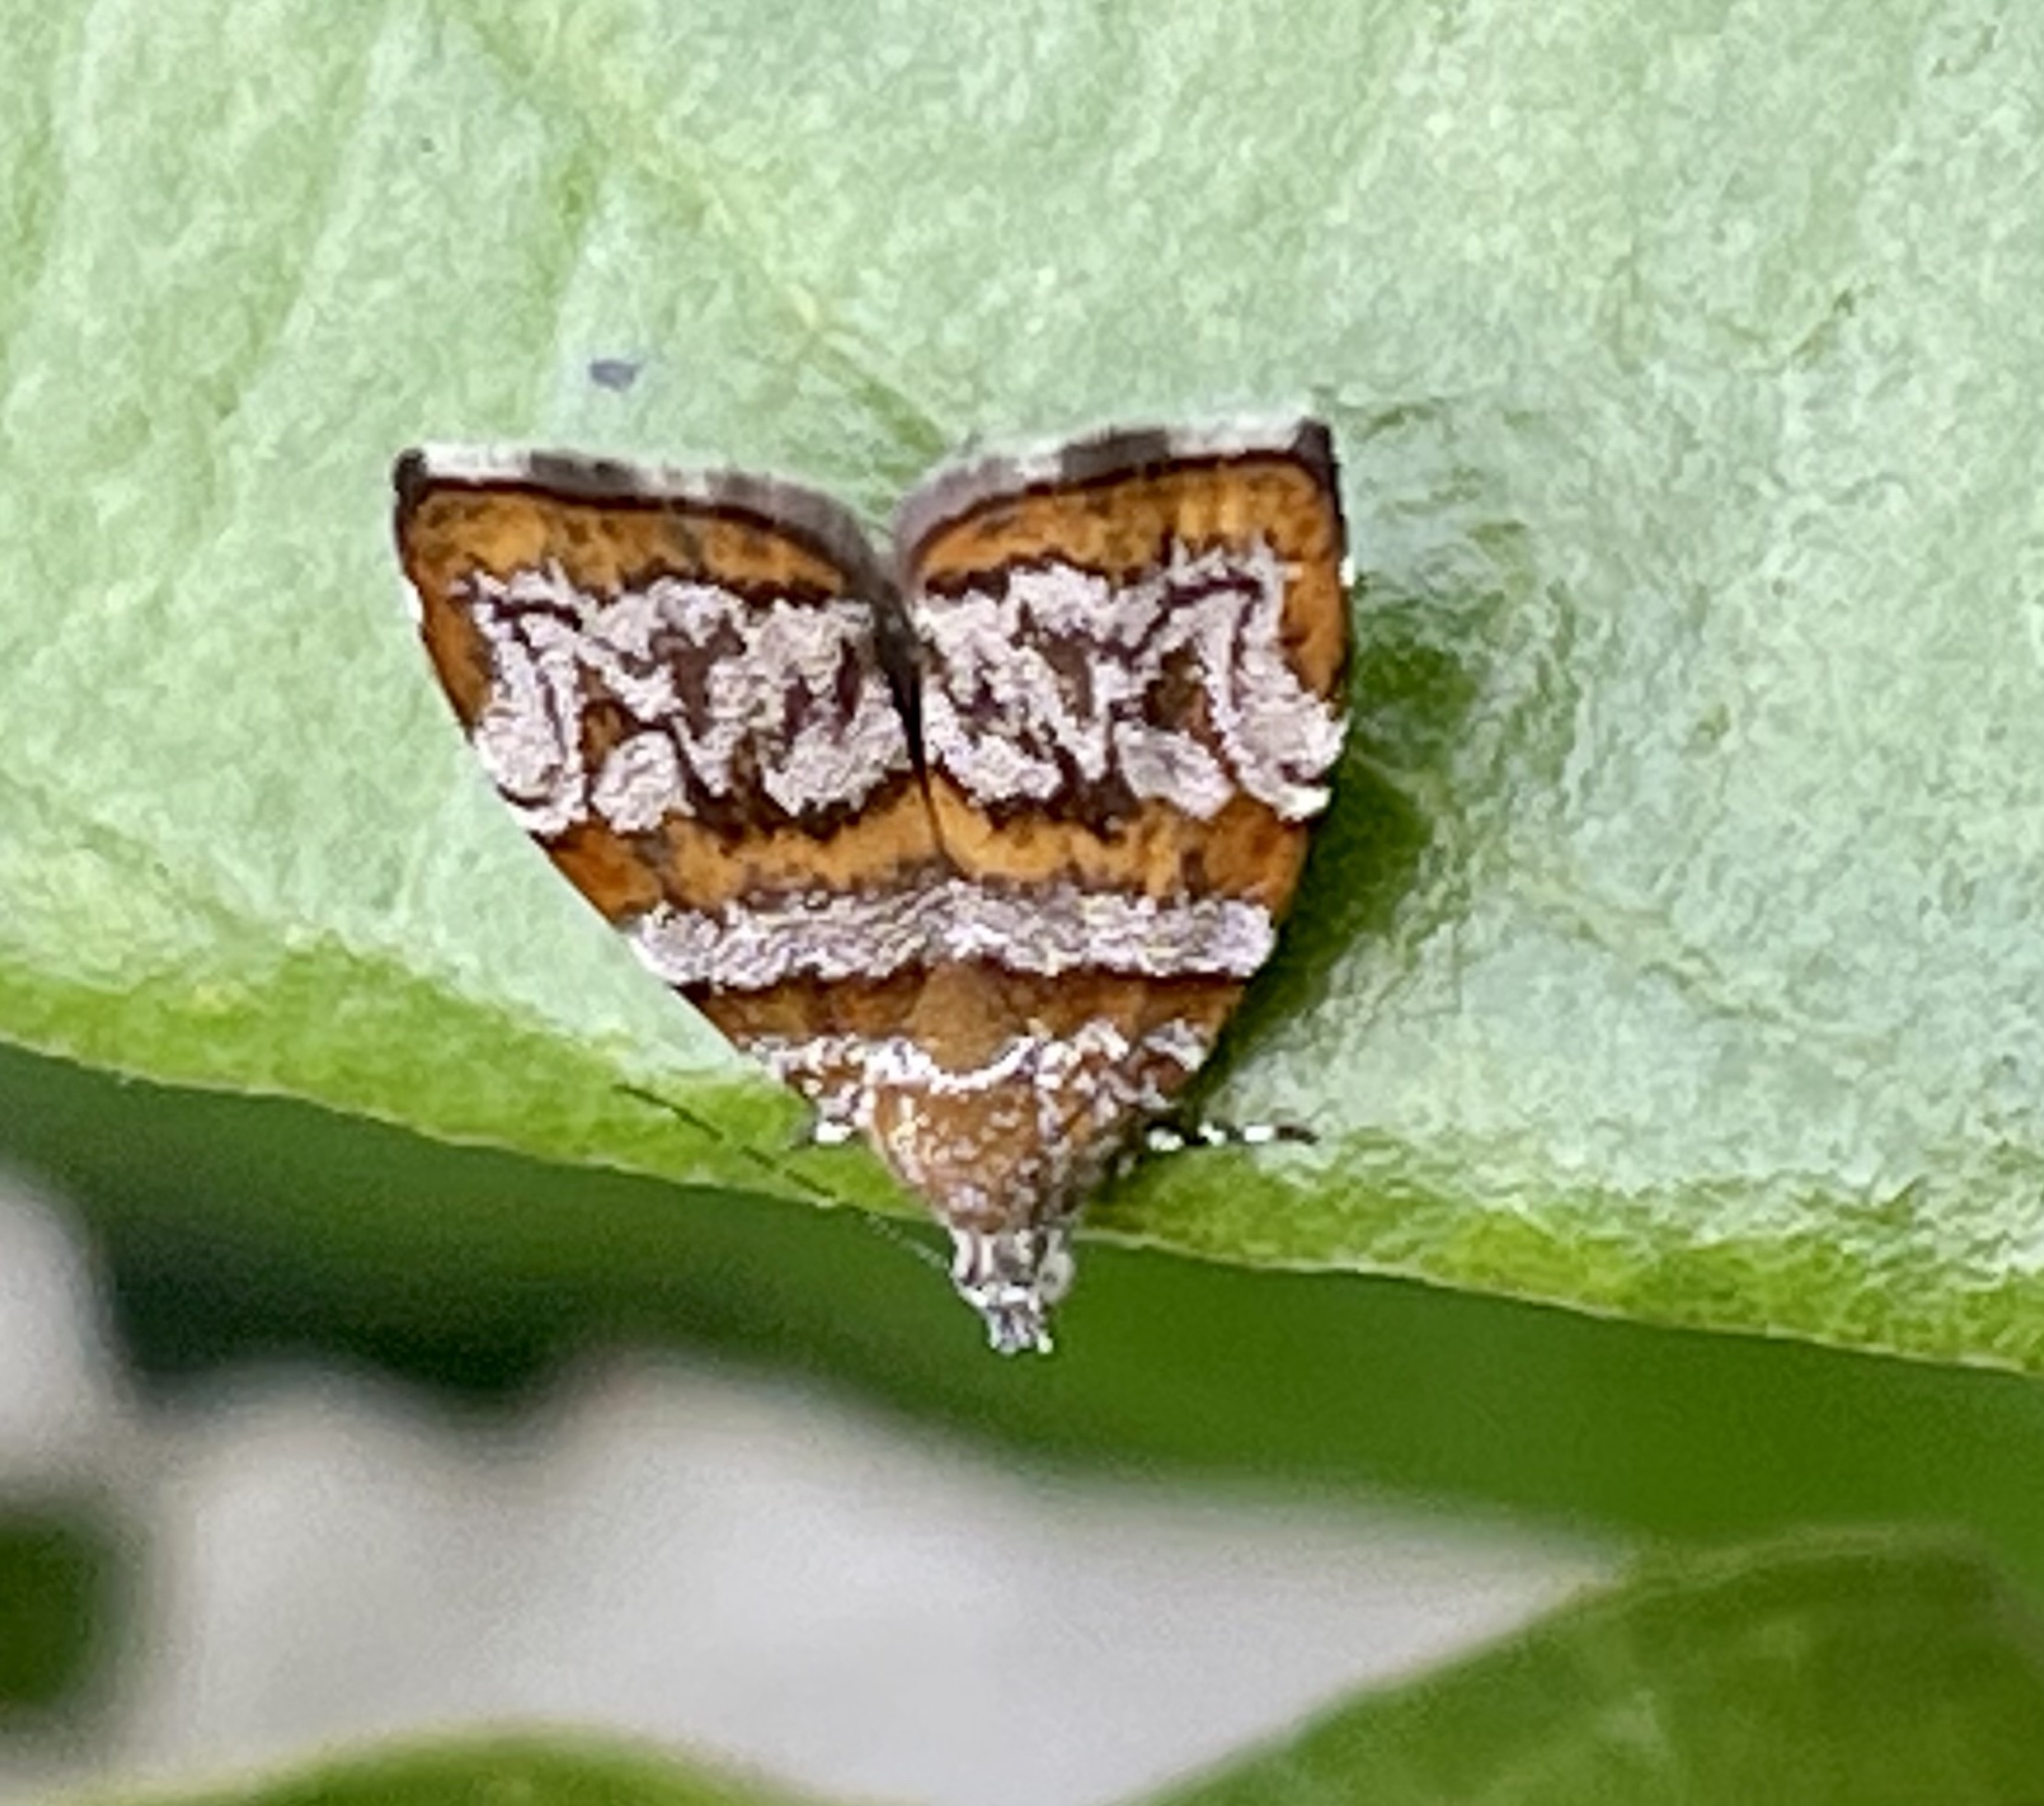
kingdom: Animalia
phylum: Arthropoda
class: Insecta
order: Lepidoptera
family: Choreutidae
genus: Choreutis
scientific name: Choreutis periploca
